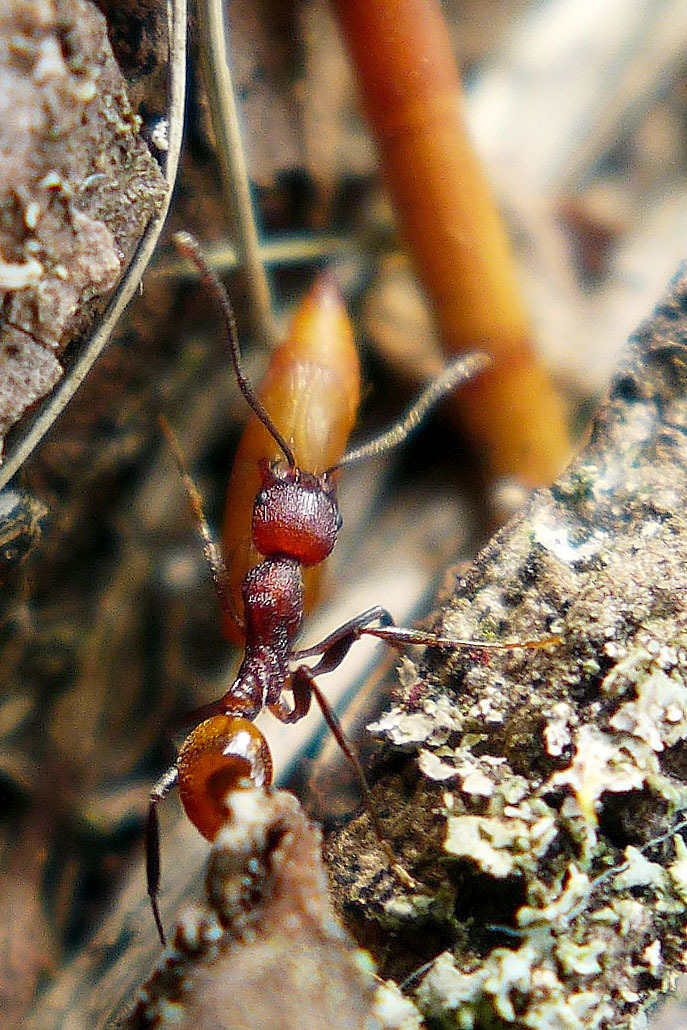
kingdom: Animalia
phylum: Arthropoda
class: Insecta
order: Hymenoptera
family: Formicidae
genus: Aphaenogaster
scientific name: Aphaenogaster tennesseensis
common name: Tennessee thread-waisted ant
